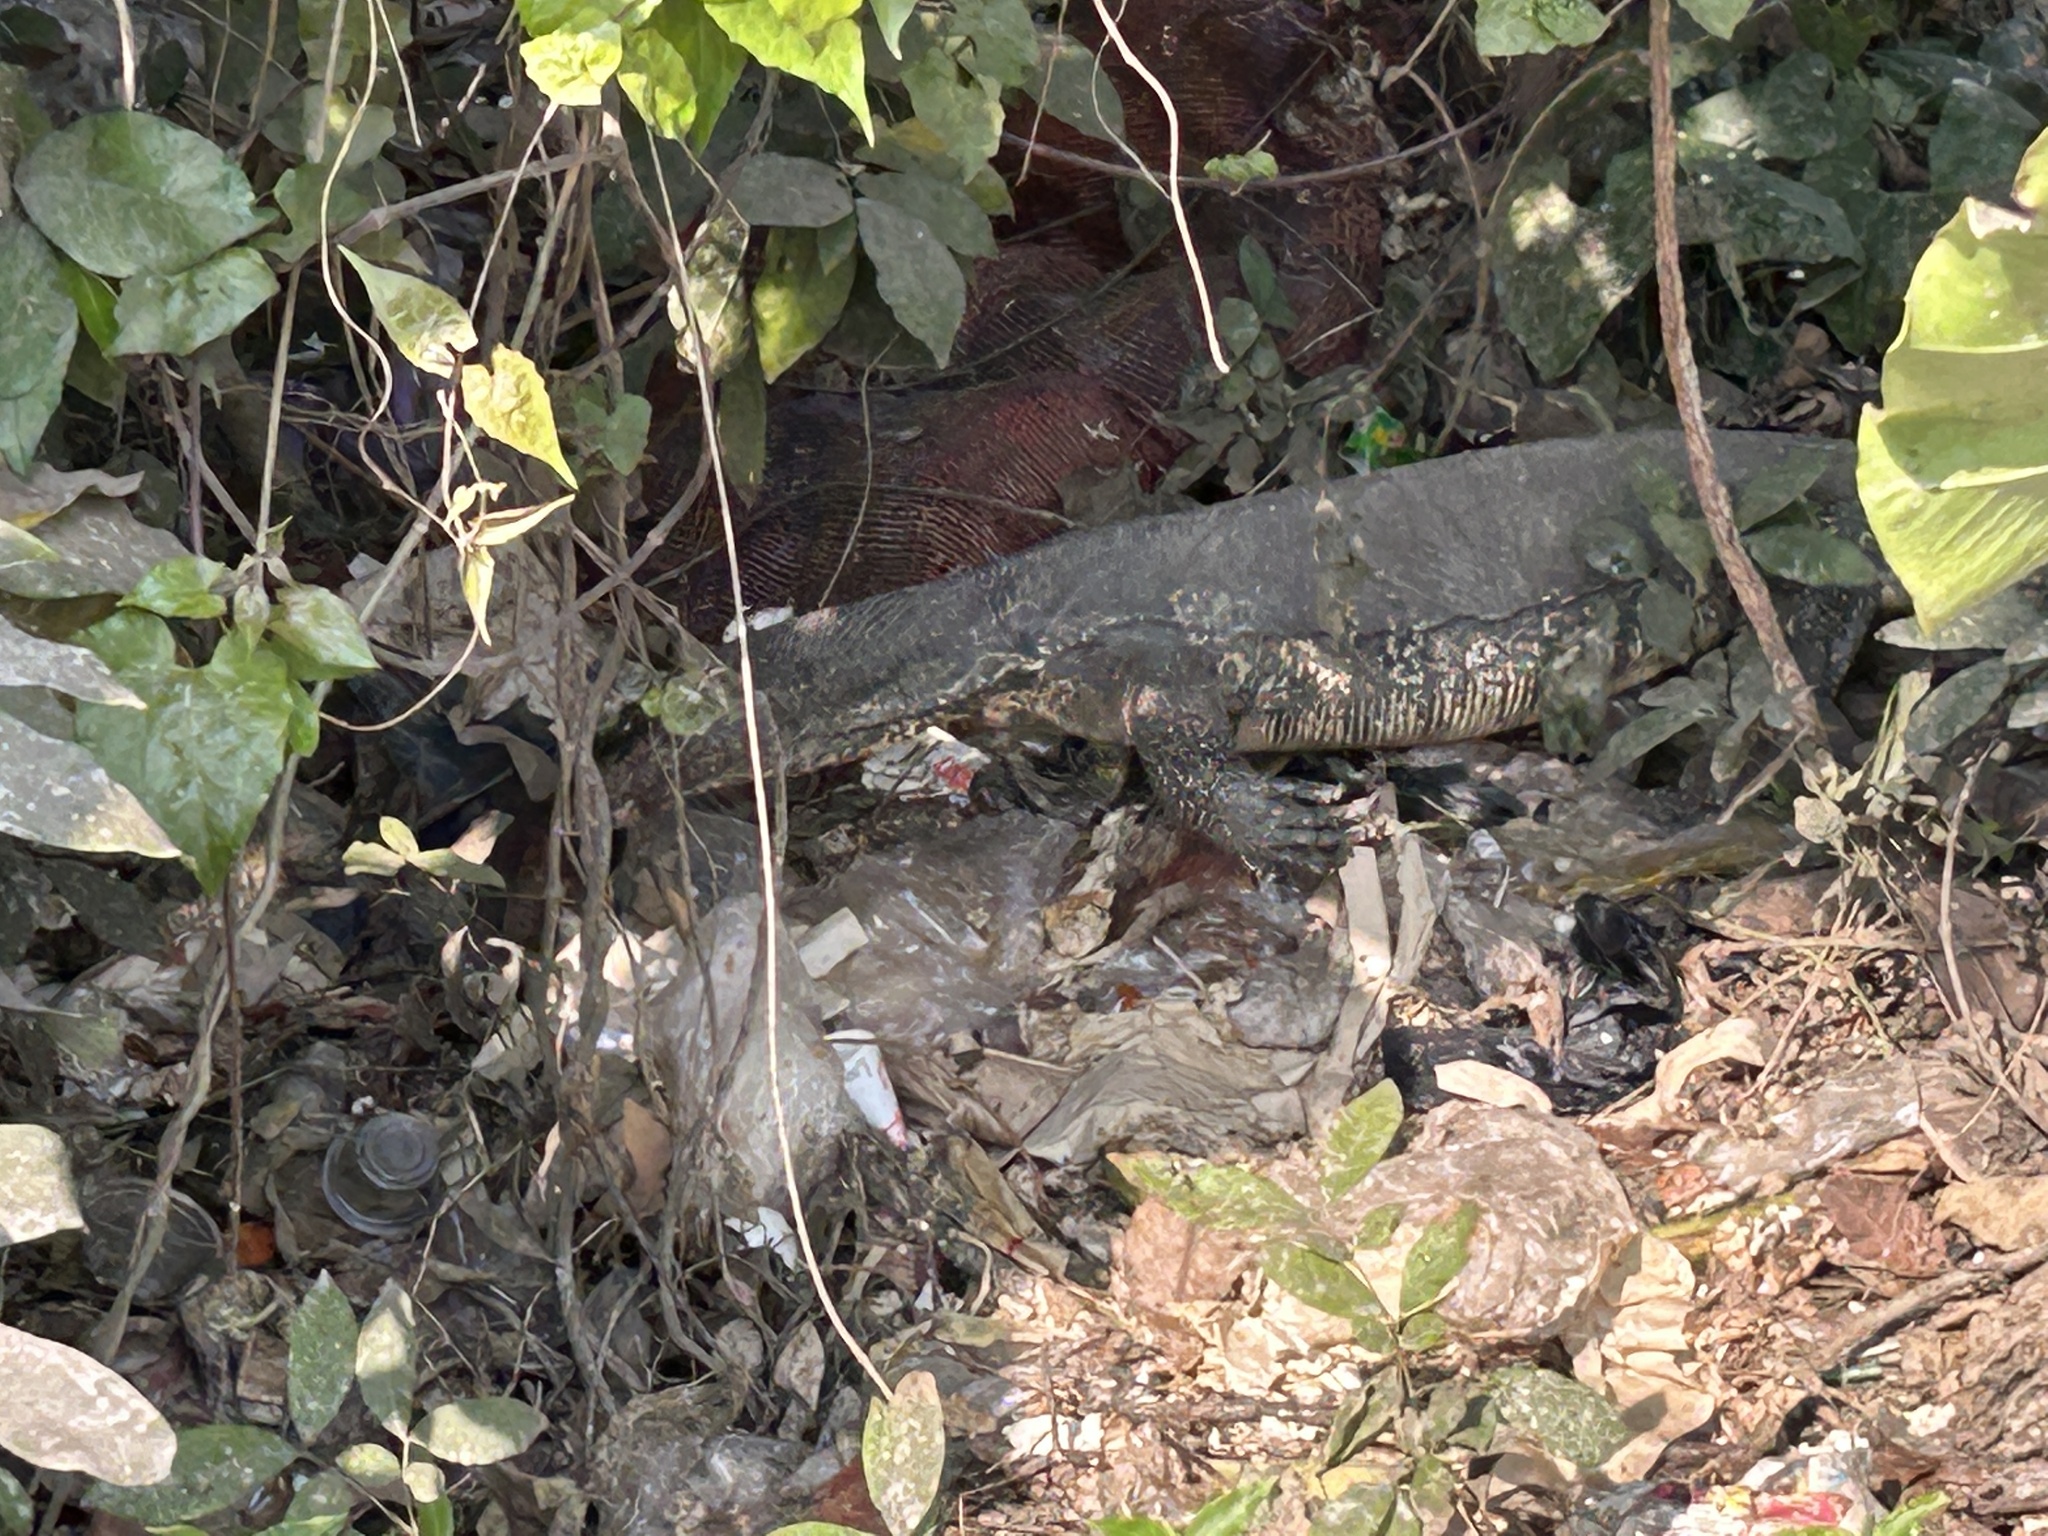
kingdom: Animalia
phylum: Chordata
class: Squamata
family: Varanidae
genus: Varanus
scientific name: Varanus salvator
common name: Common water monitor
